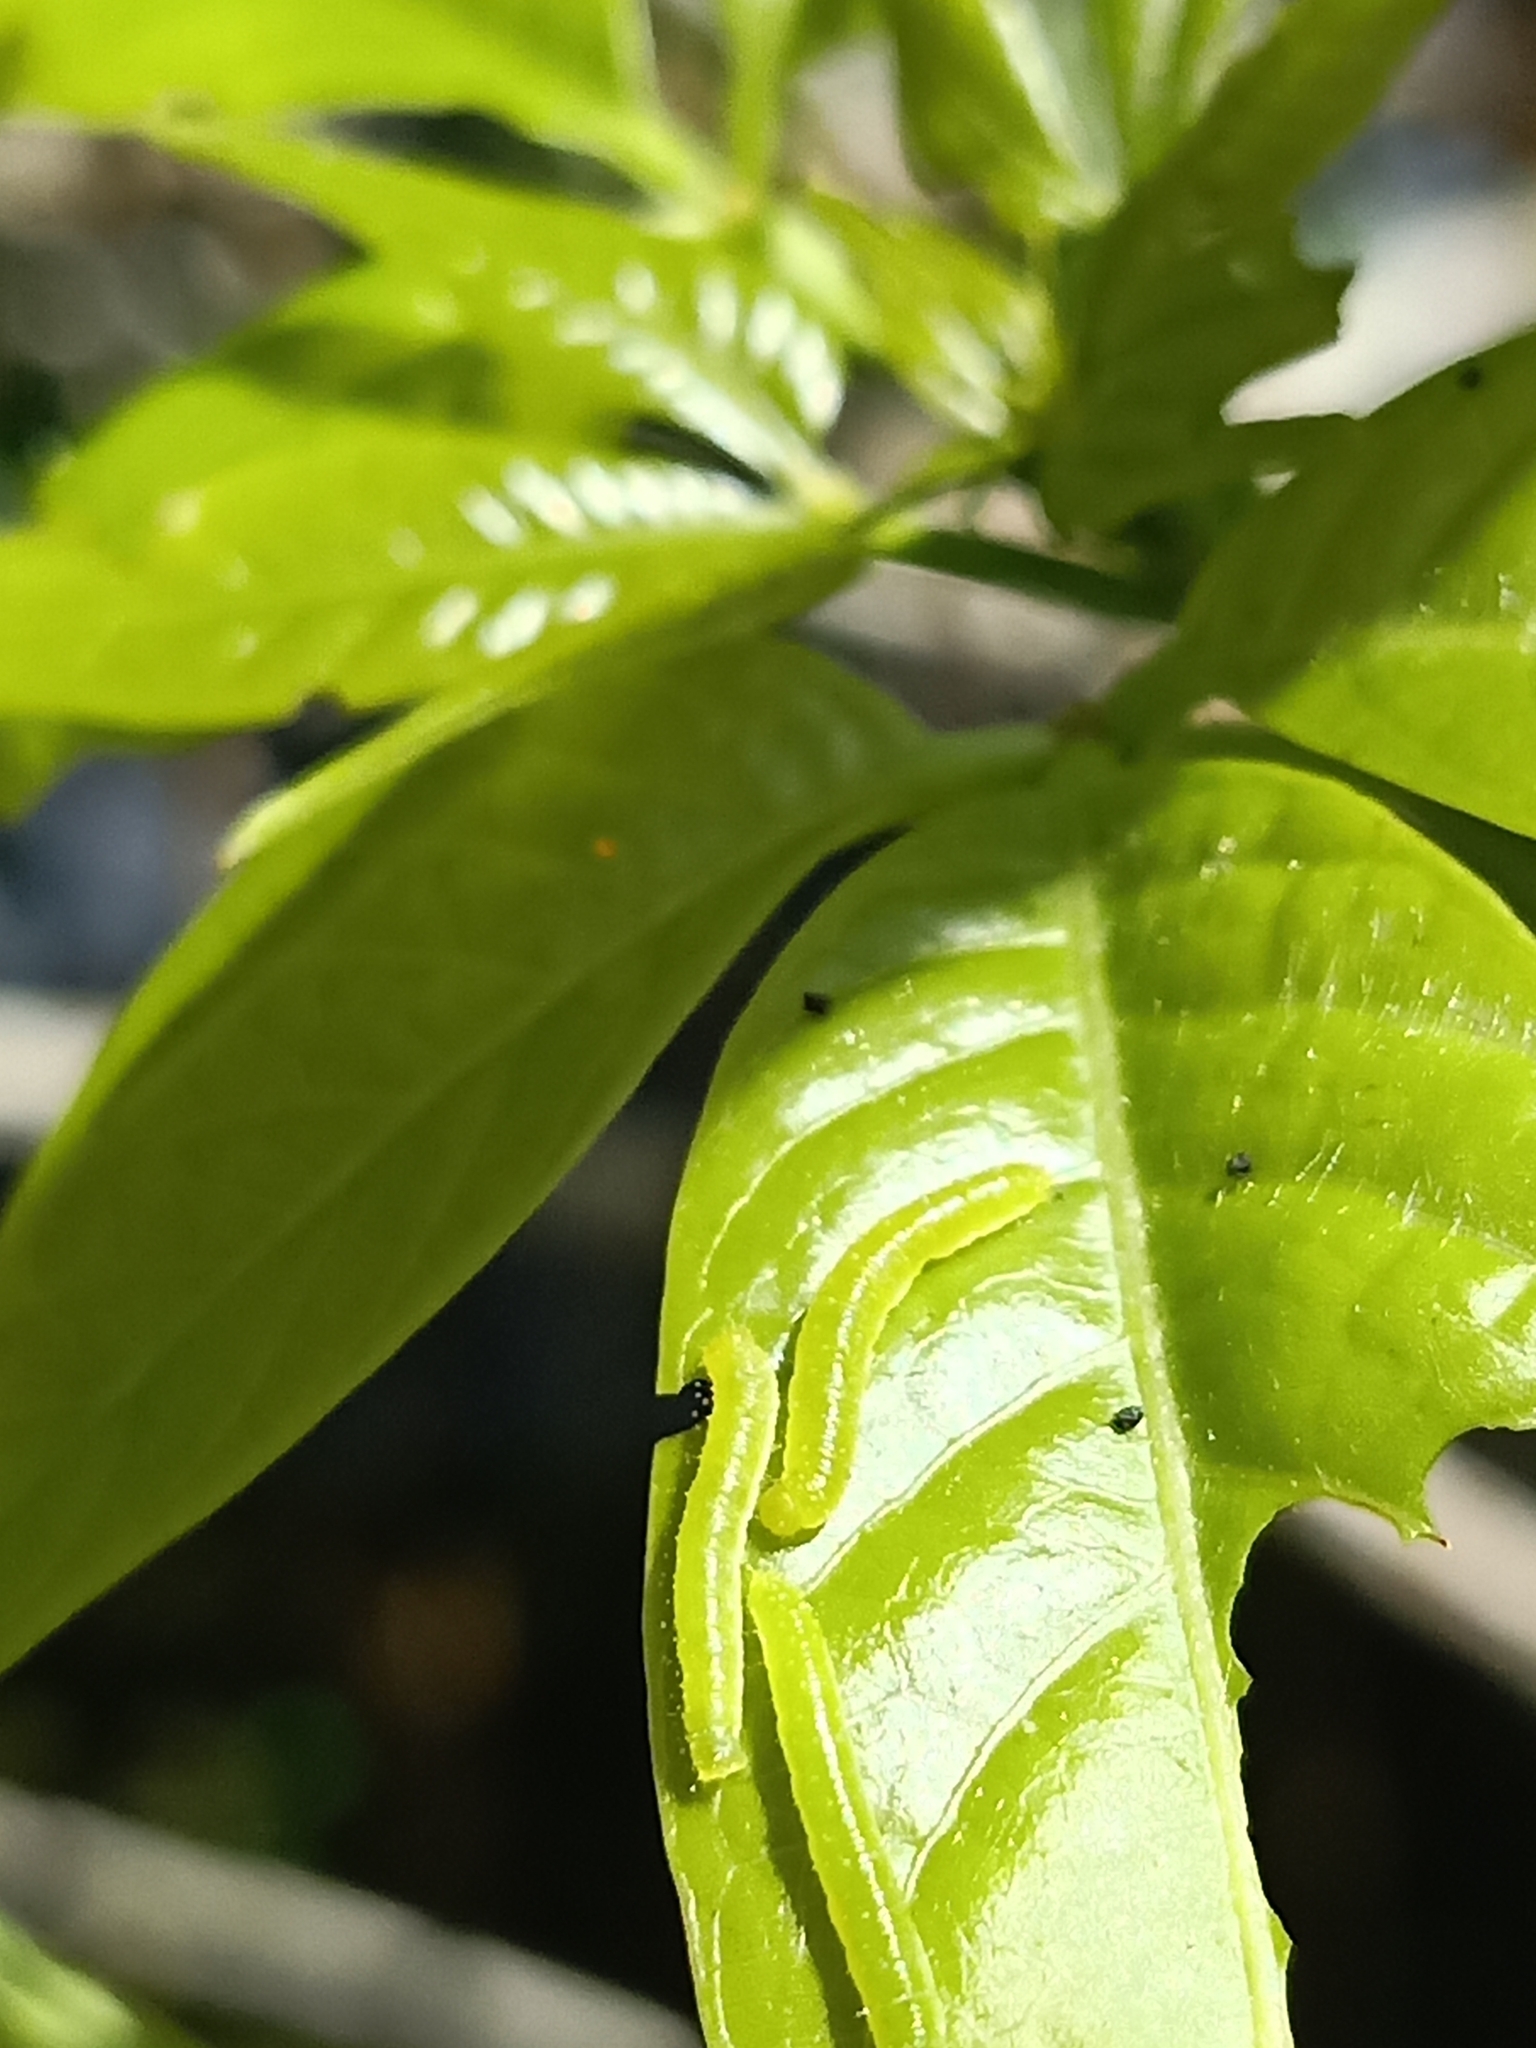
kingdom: Animalia
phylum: Arthropoda
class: Insecta
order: Lepidoptera
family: Pieridae
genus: Appias
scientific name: Appias lyncida
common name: Chocolate albatross
